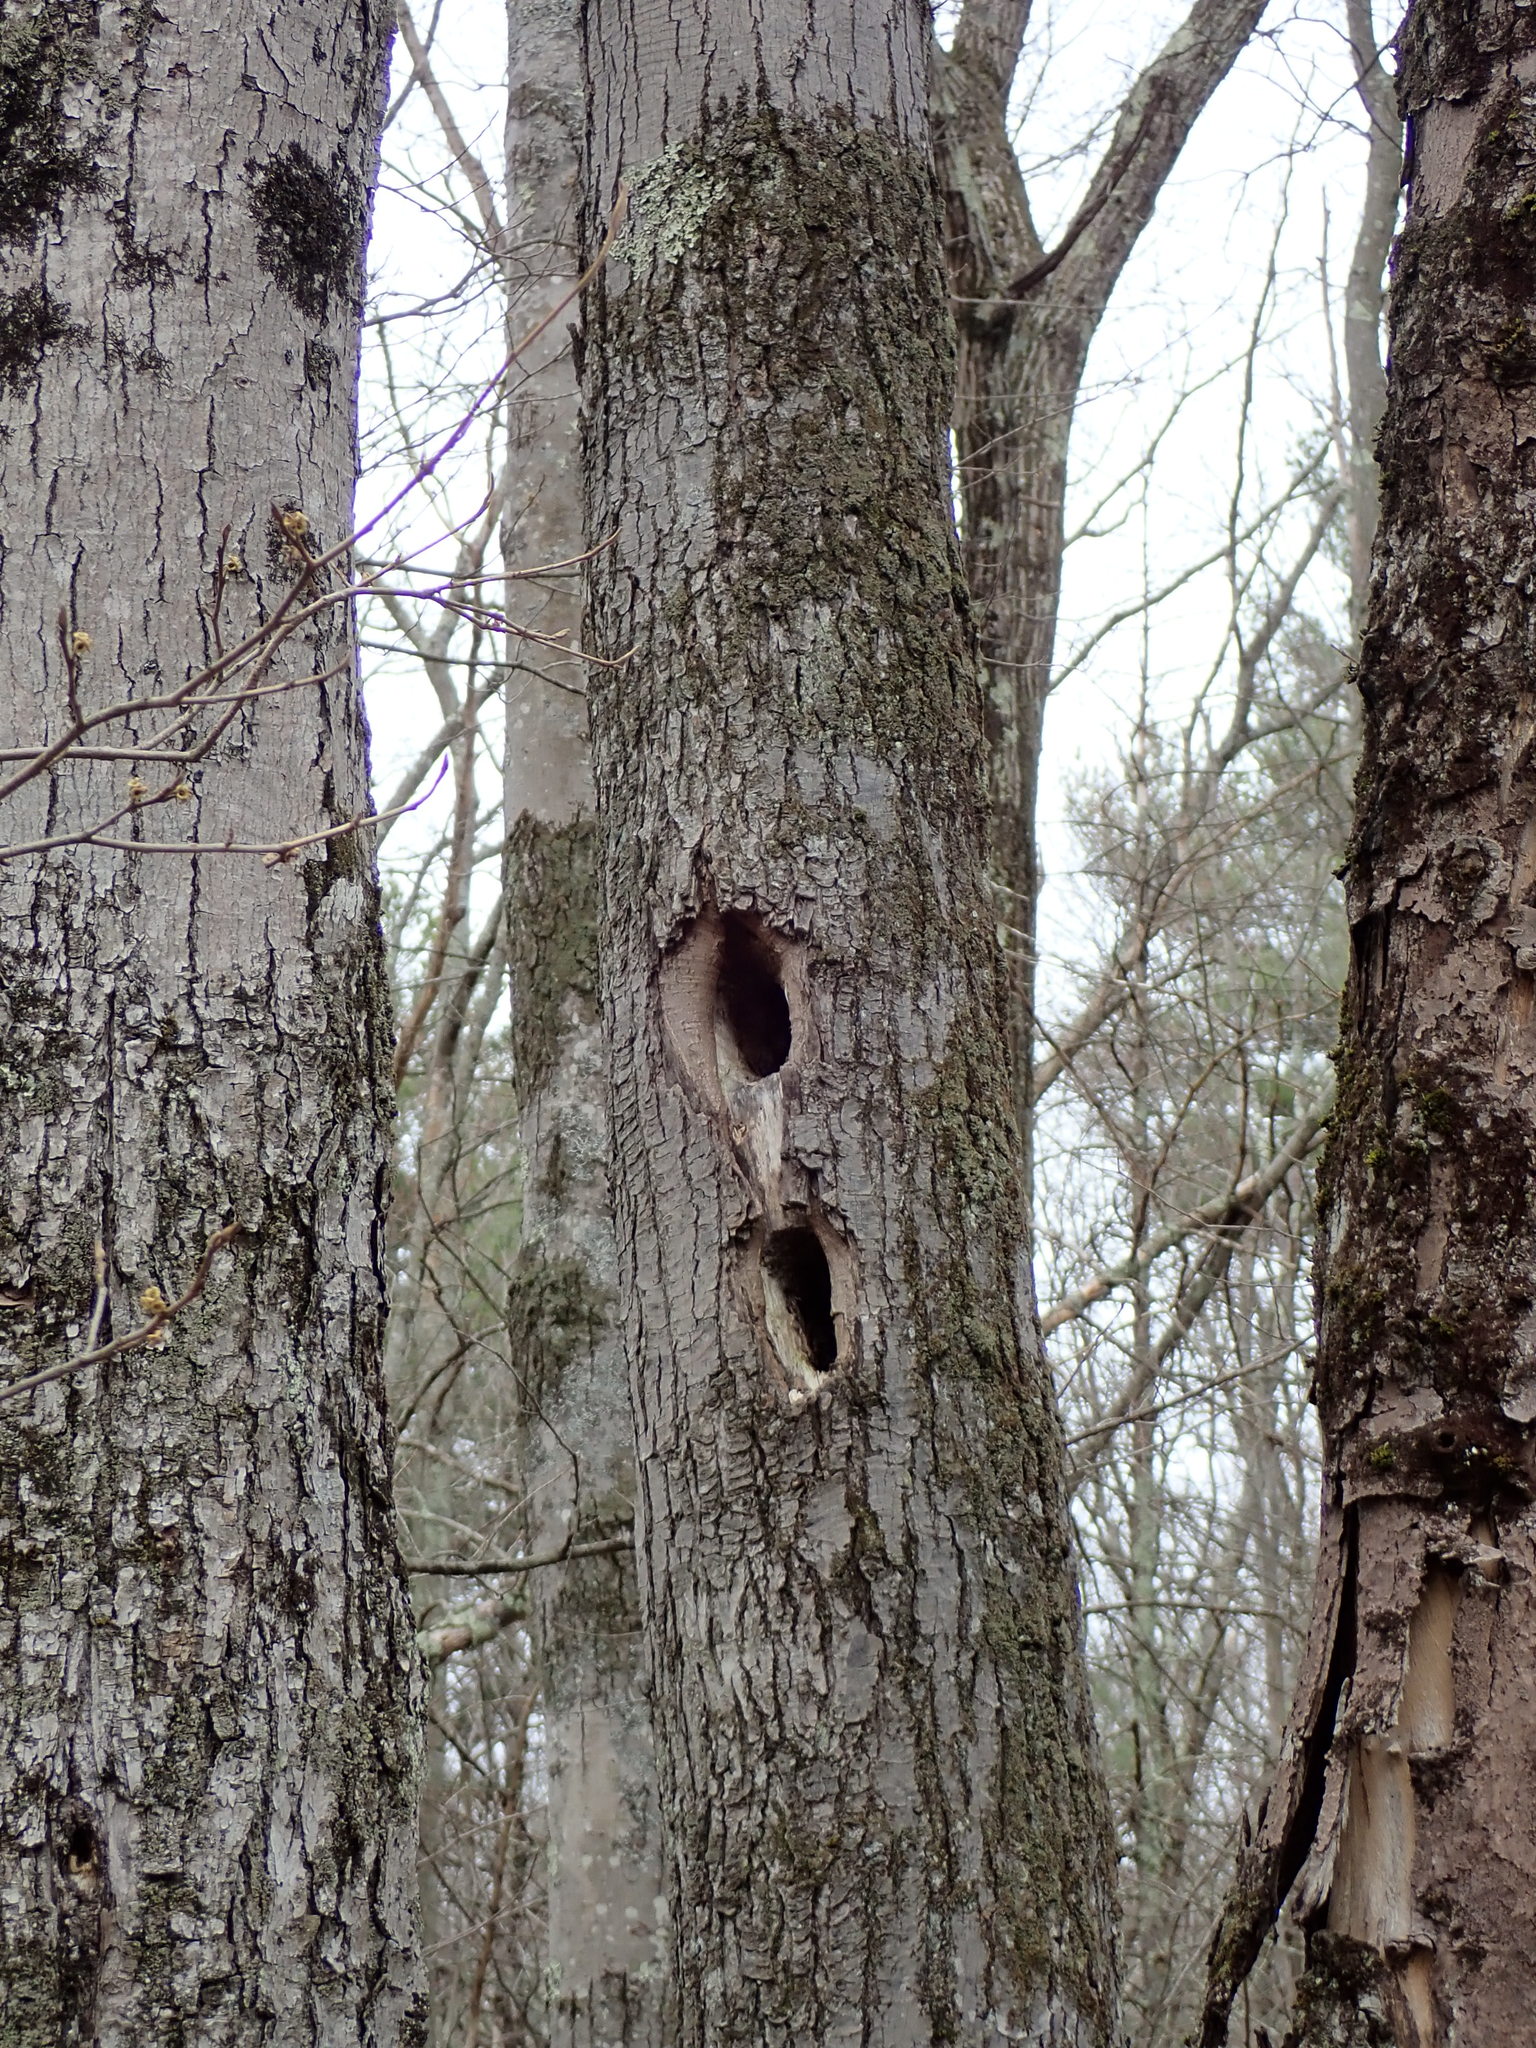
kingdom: Animalia
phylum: Chordata
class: Aves
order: Piciformes
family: Picidae
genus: Dryocopus
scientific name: Dryocopus pileatus
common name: Pileated woodpecker
